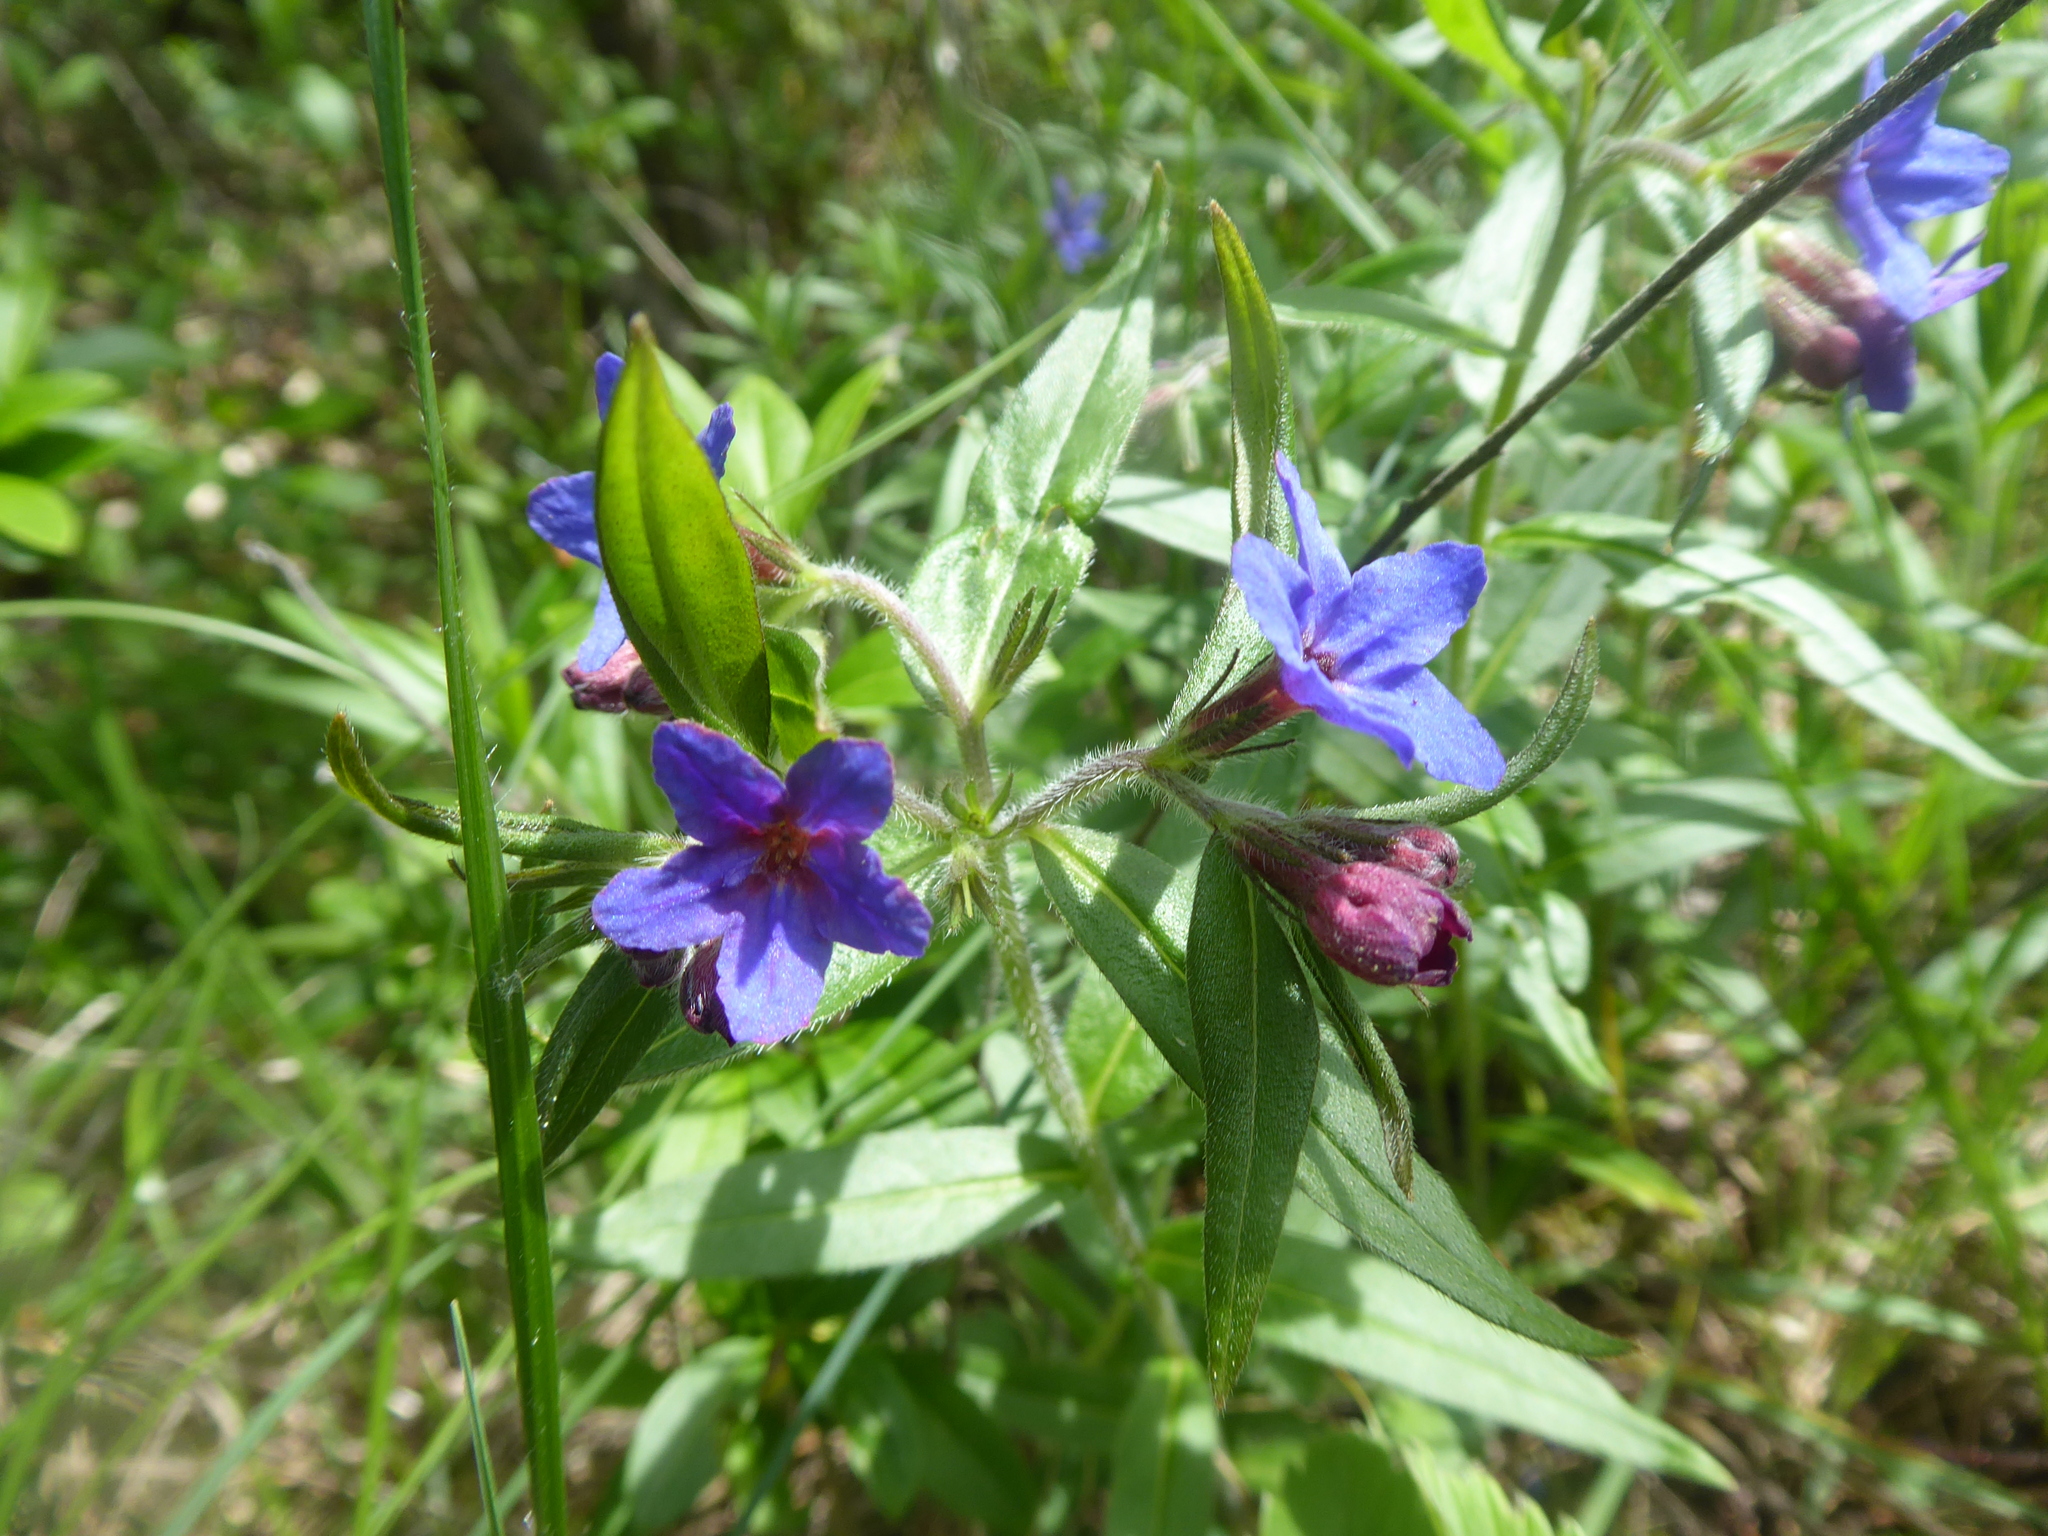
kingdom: Plantae
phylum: Tracheophyta
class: Magnoliopsida
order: Boraginales
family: Boraginaceae
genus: Aegonychon
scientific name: Aegonychon purpurocaeruleum
